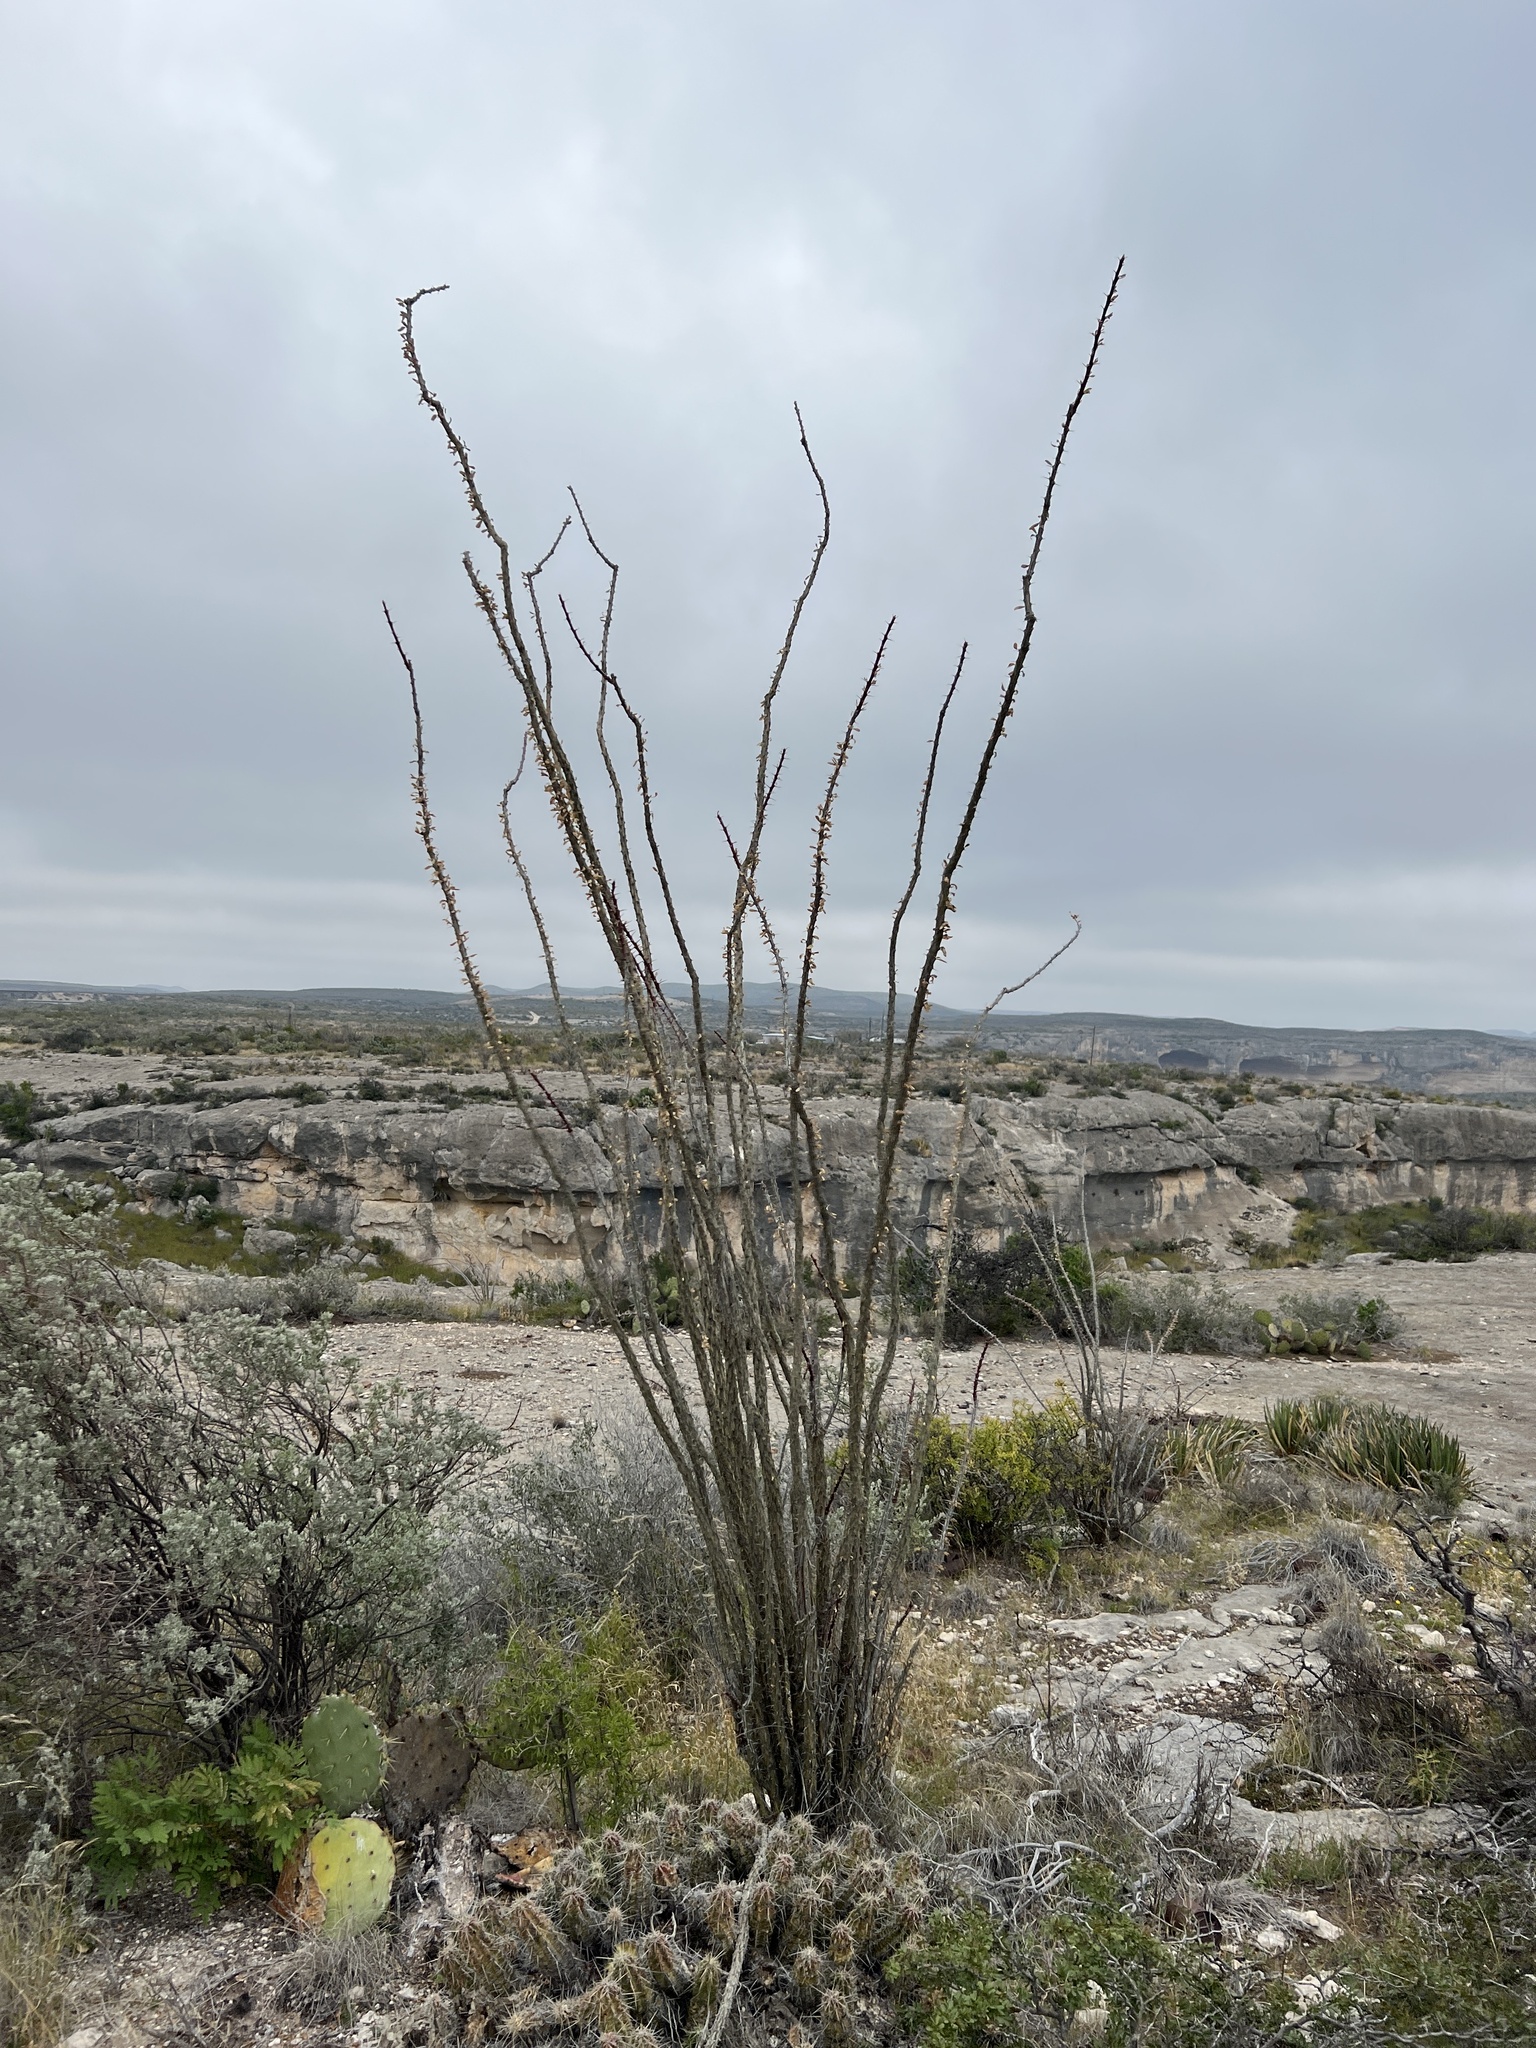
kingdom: Plantae
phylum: Tracheophyta
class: Magnoliopsida
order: Ericales
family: Fouquieriaceae
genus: Fouquieria
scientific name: Fouquieria splendens
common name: Vine-cactus
